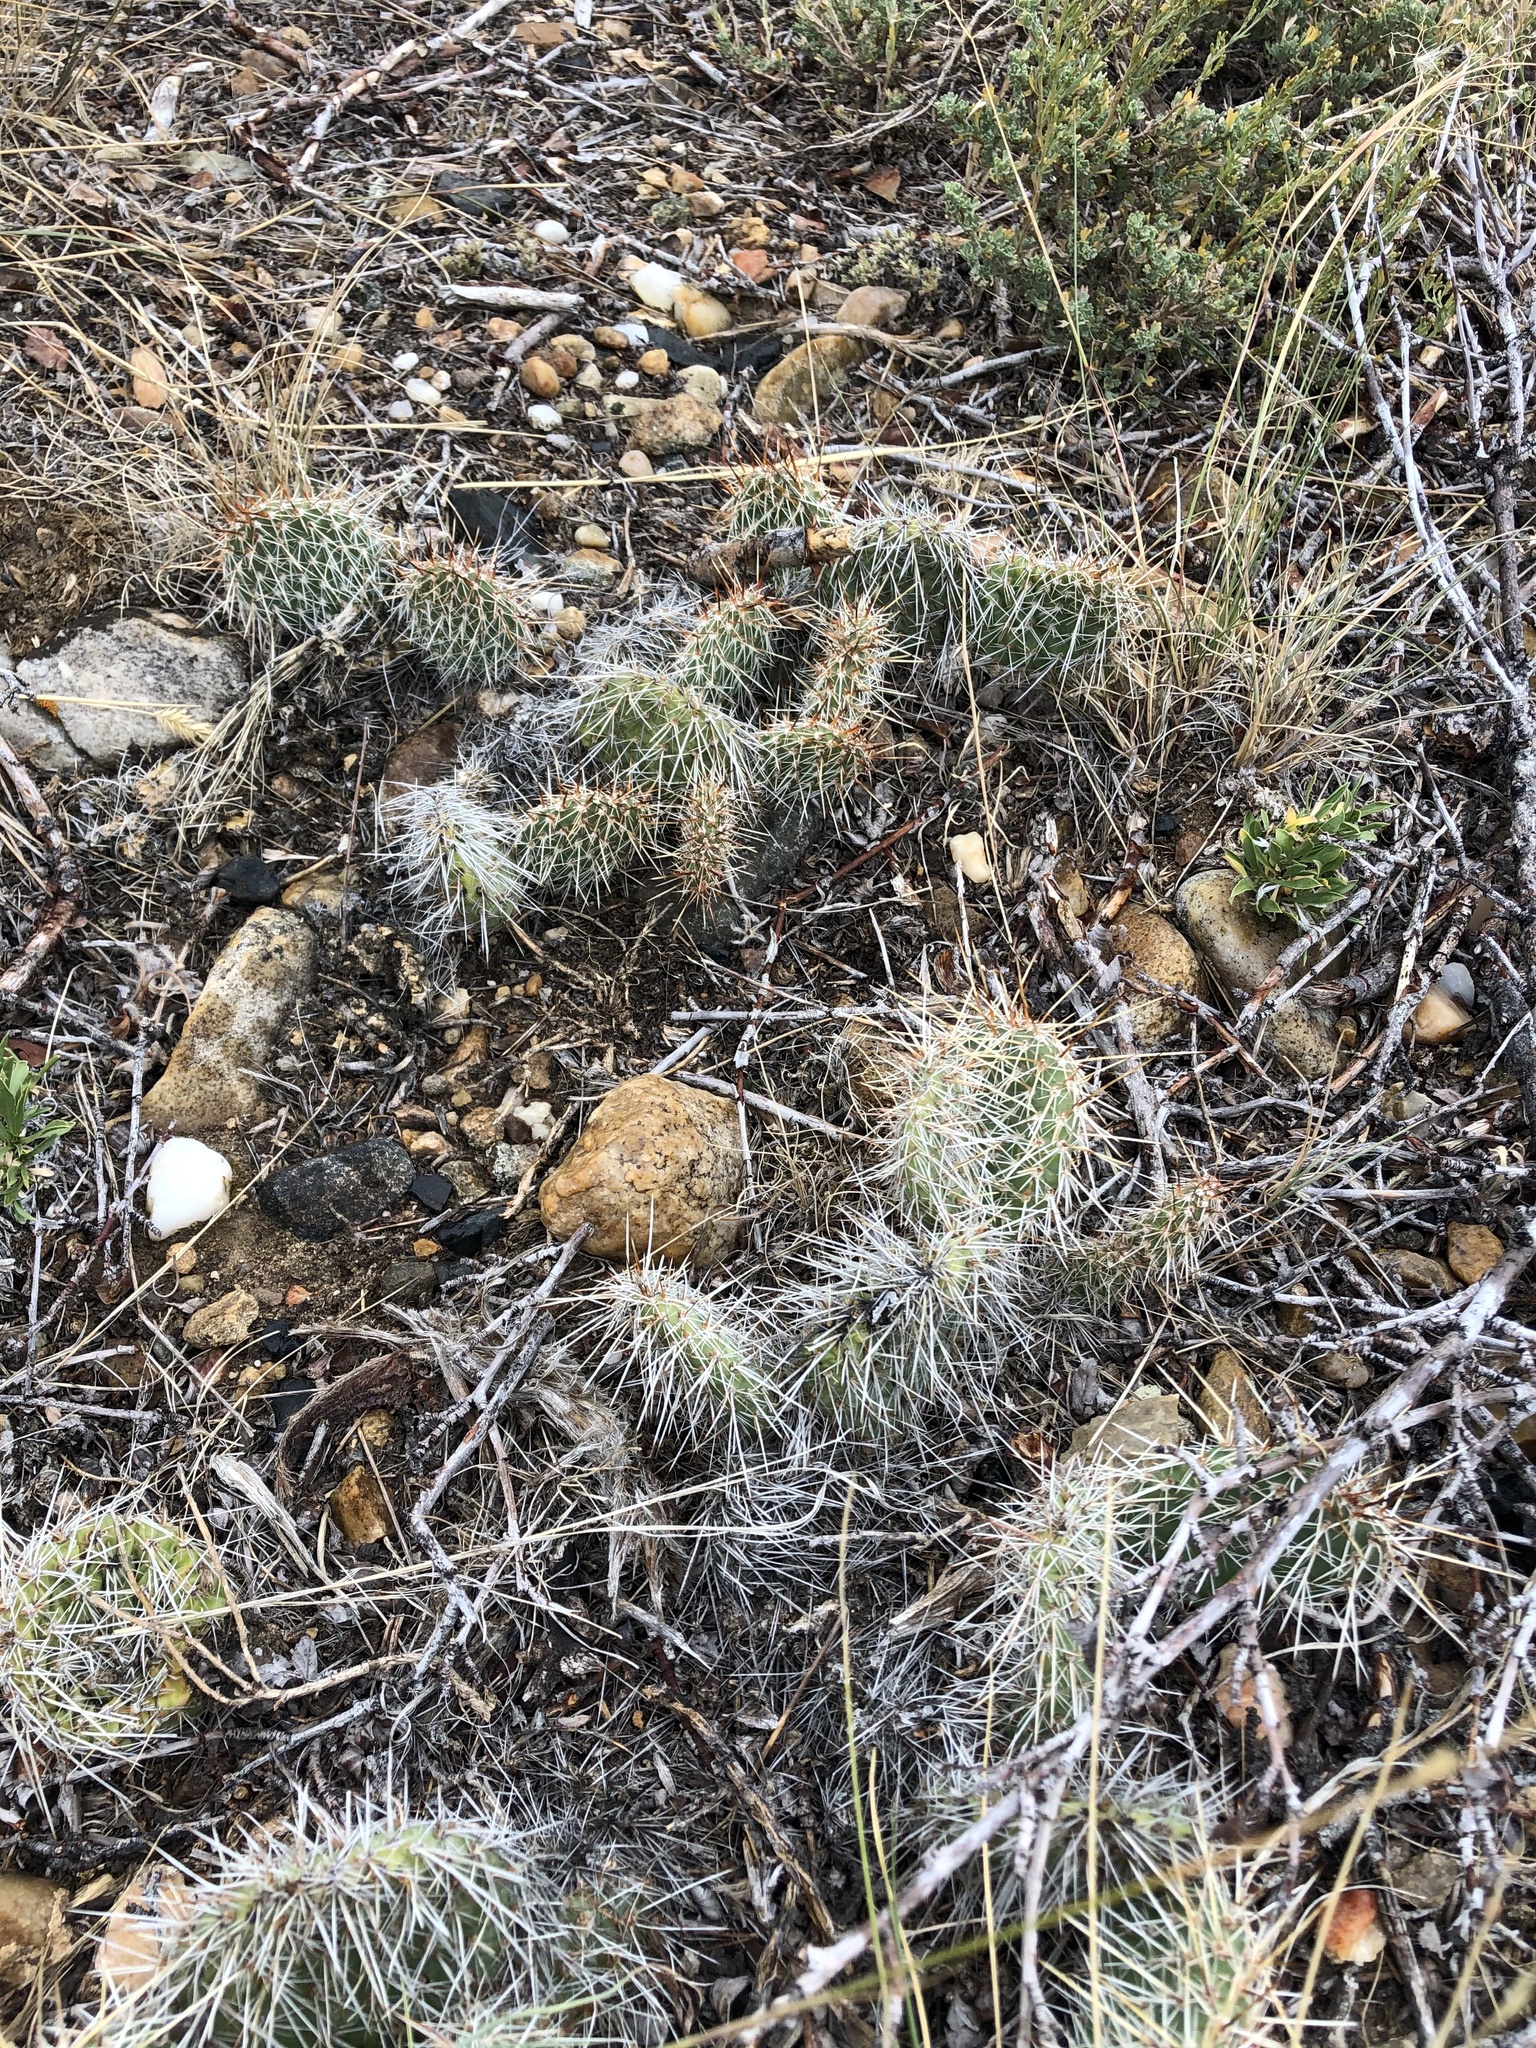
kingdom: Plantae
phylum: Tracheophyta
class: Magnoliopsida
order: Caryophyllales
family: Cactaceae
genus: Opuntia
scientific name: Opuntia polyacantha
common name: Plains prickly-pear
